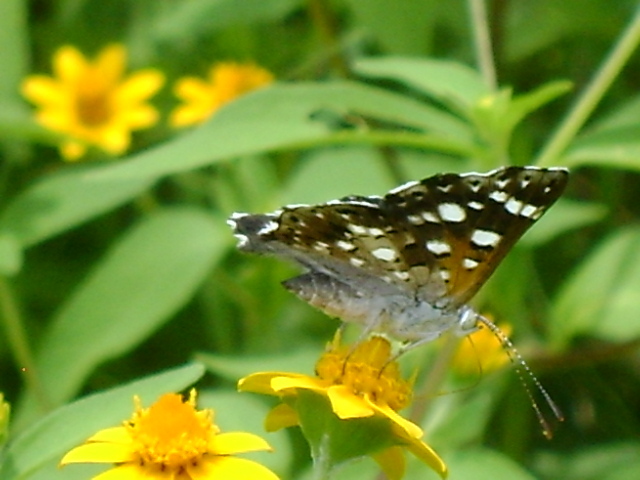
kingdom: Animalia
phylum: Arthropoda
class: Insecta
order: Lepidoptera
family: Riodinidae
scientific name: Riodinidae
